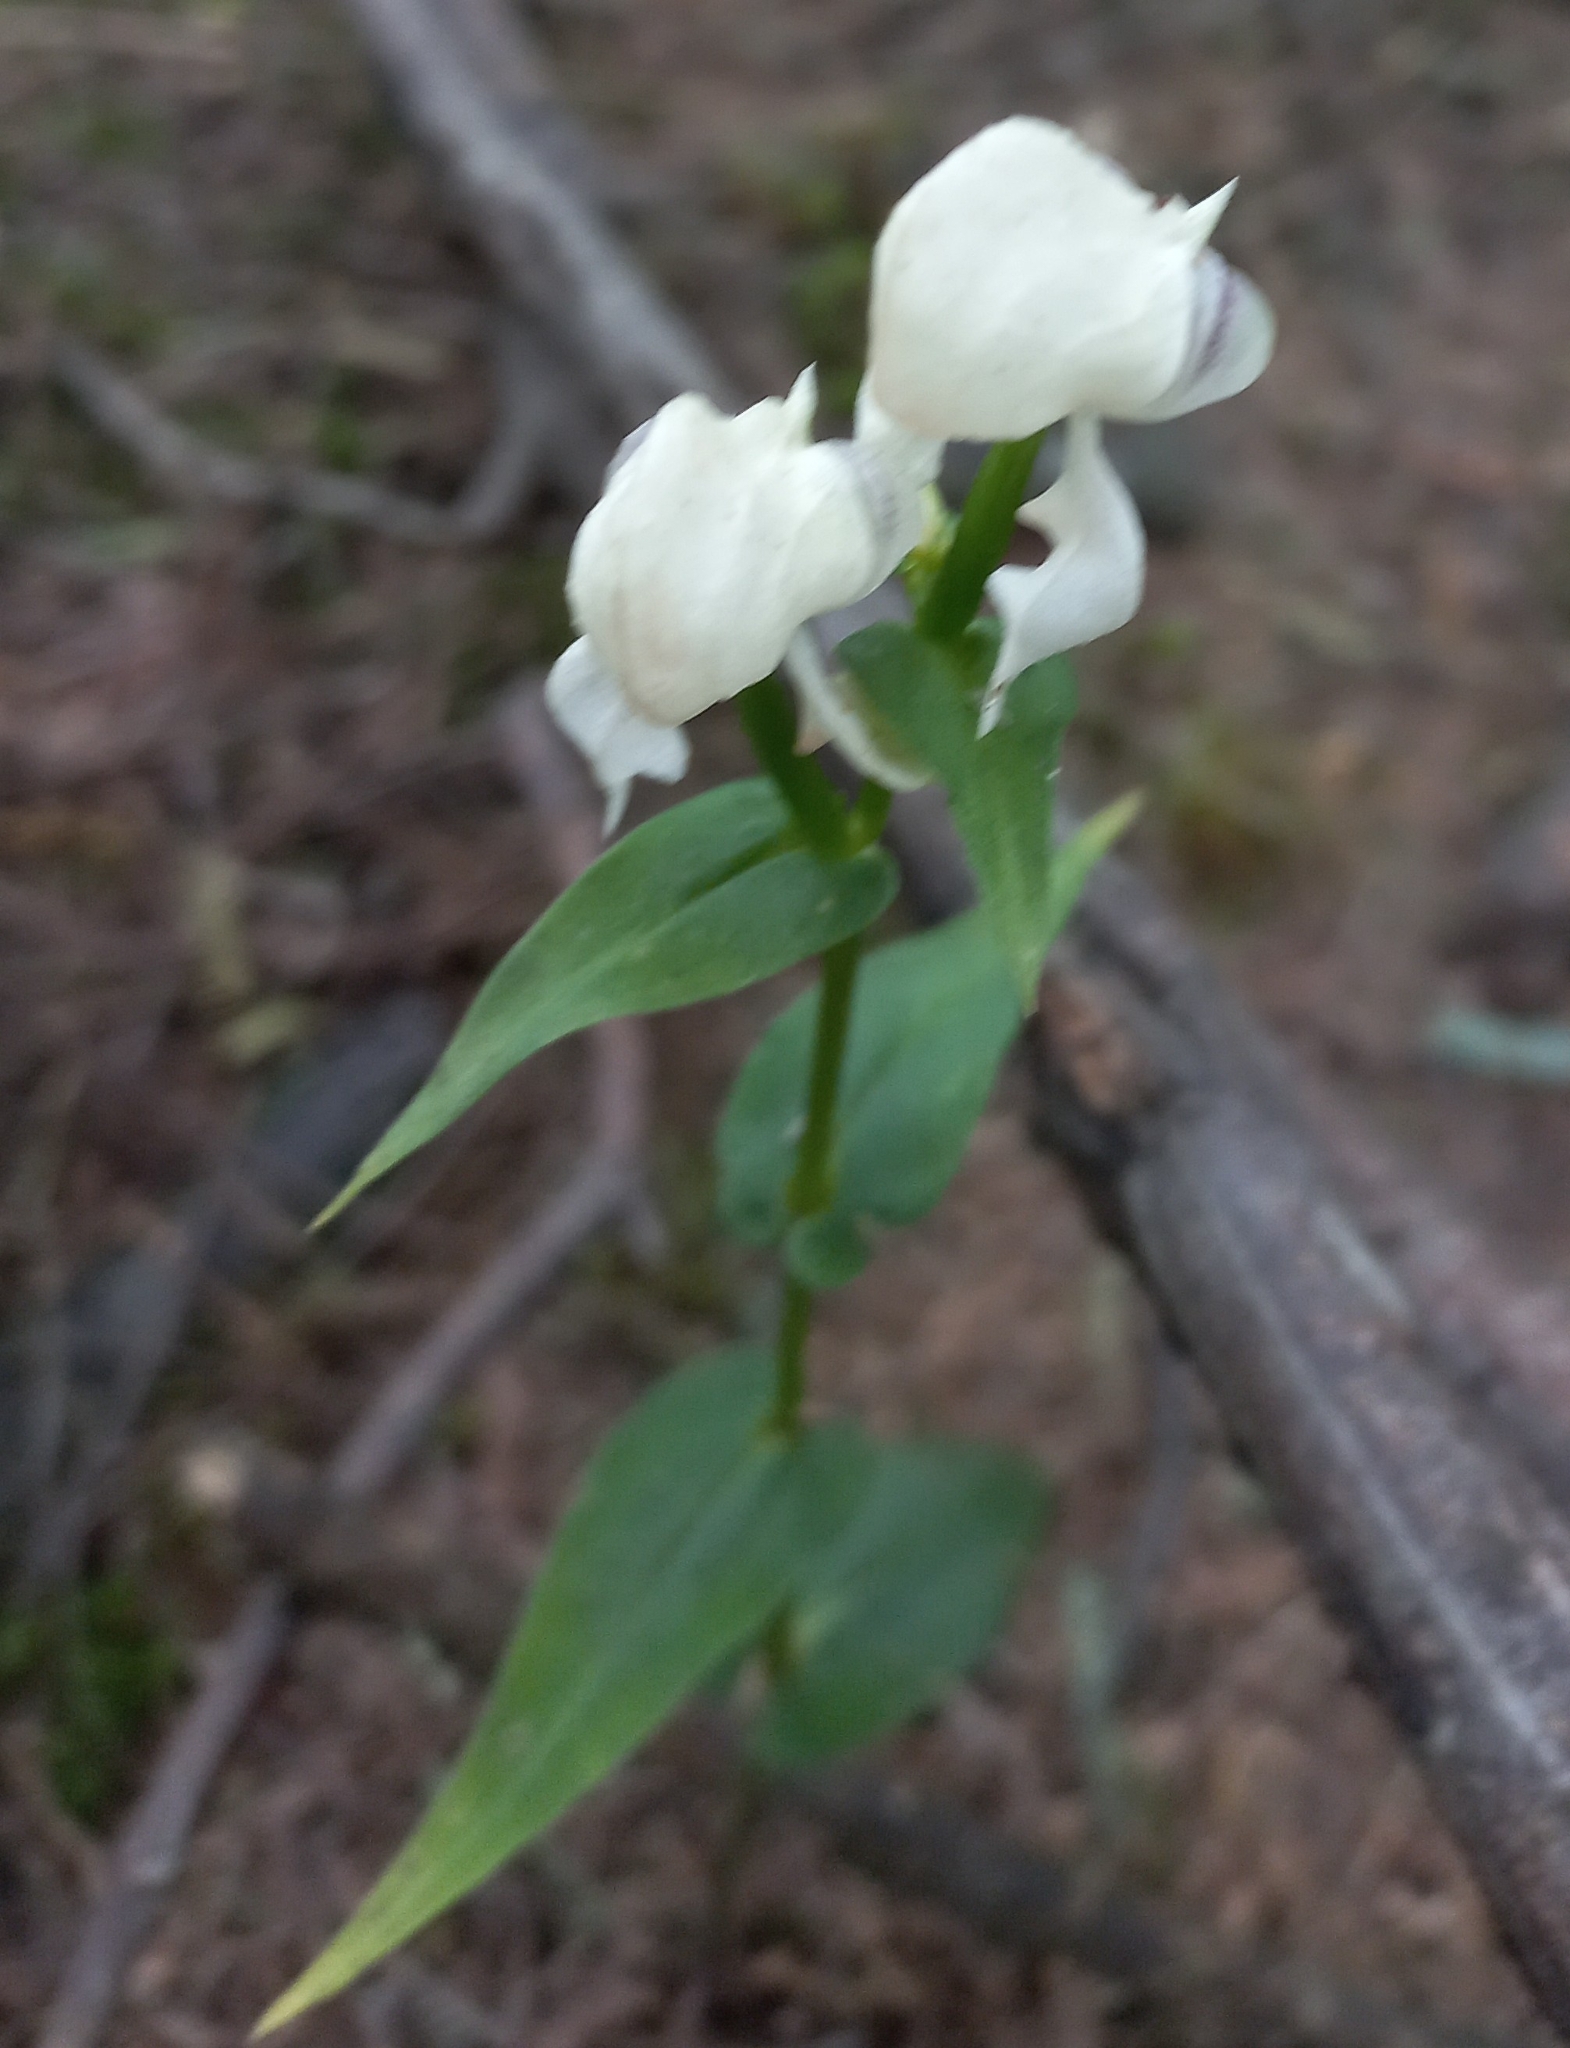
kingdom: Plantae
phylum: Tracheophyta
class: Liliopsida
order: Asparagales
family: Orchidaceae
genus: Disperis
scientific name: Disperis fanniniae
